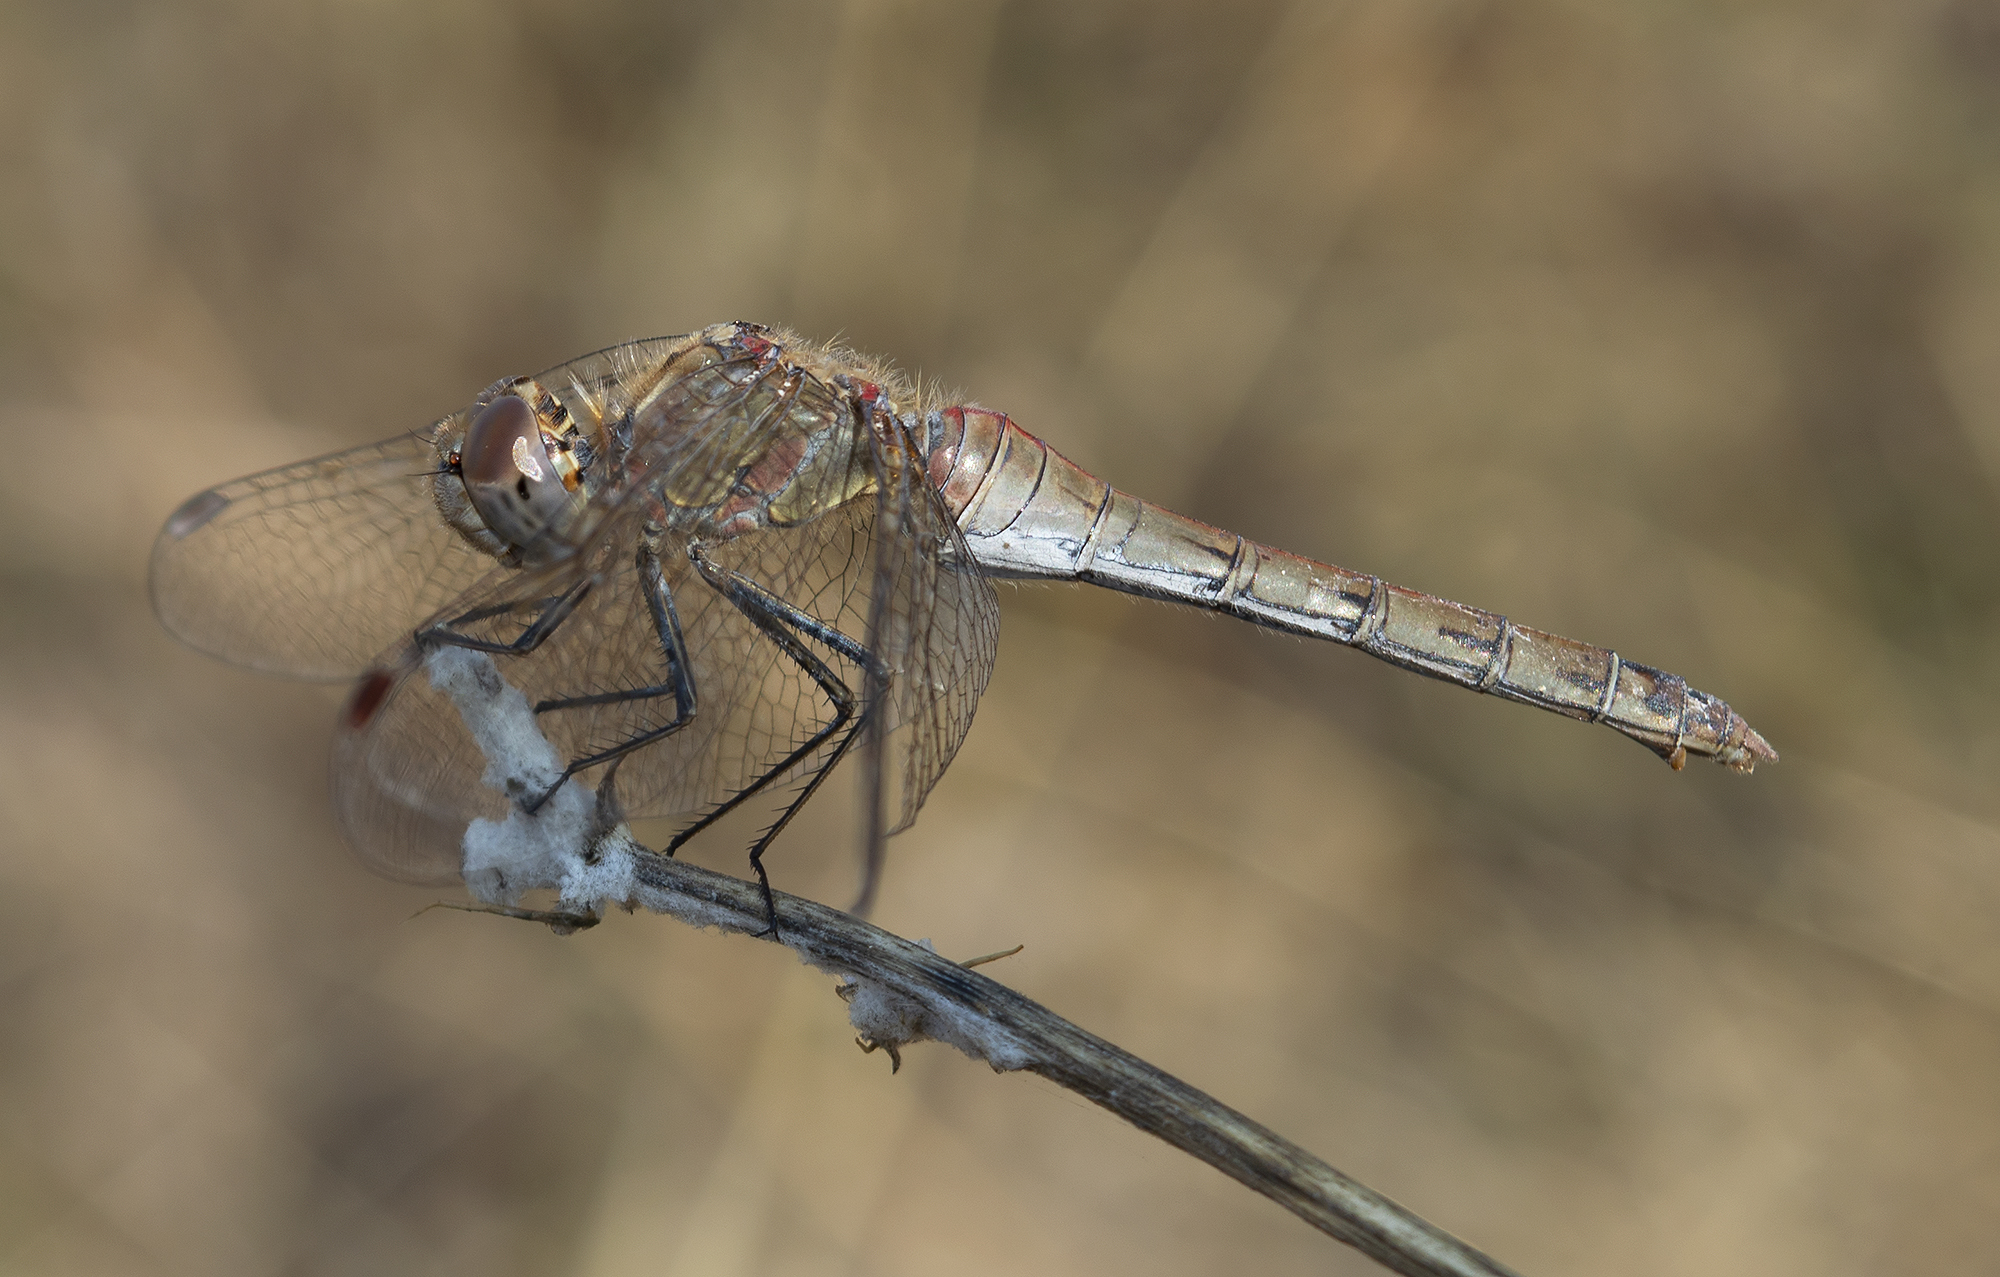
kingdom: Animalia
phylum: Arthropoda
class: Insecta
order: Odonata
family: Libellulidae
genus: Sympetrum
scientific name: Sympetrum striolatum
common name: Common darter
